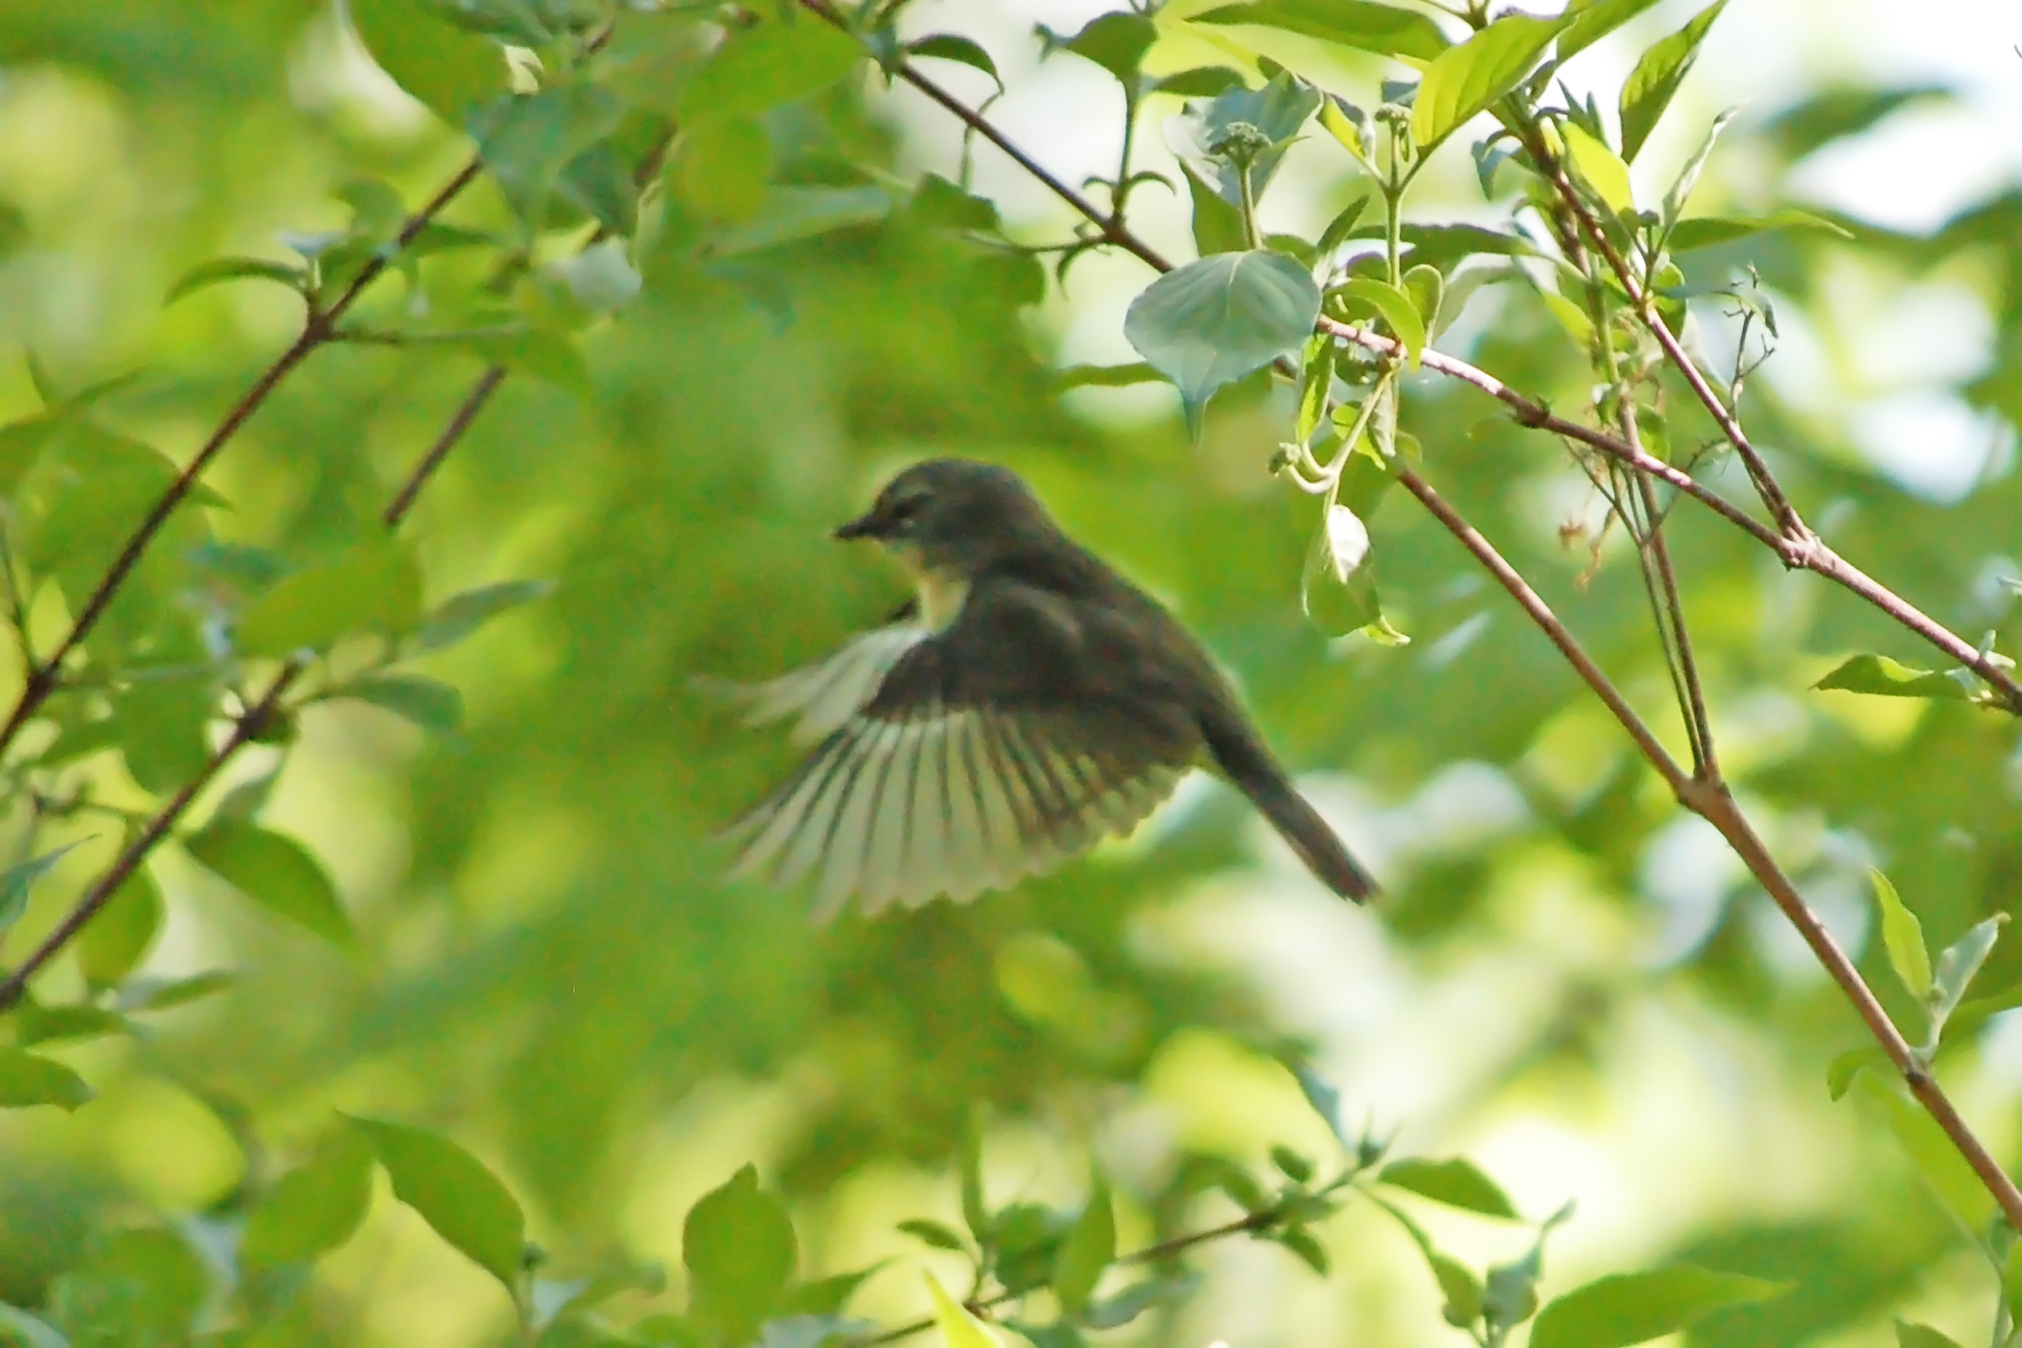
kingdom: Animalia
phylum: Chordata
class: Aves
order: Passeriformes
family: Parulidae
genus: Setophaga
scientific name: Setophaga caerulescens
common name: Black-throated blue warbler
